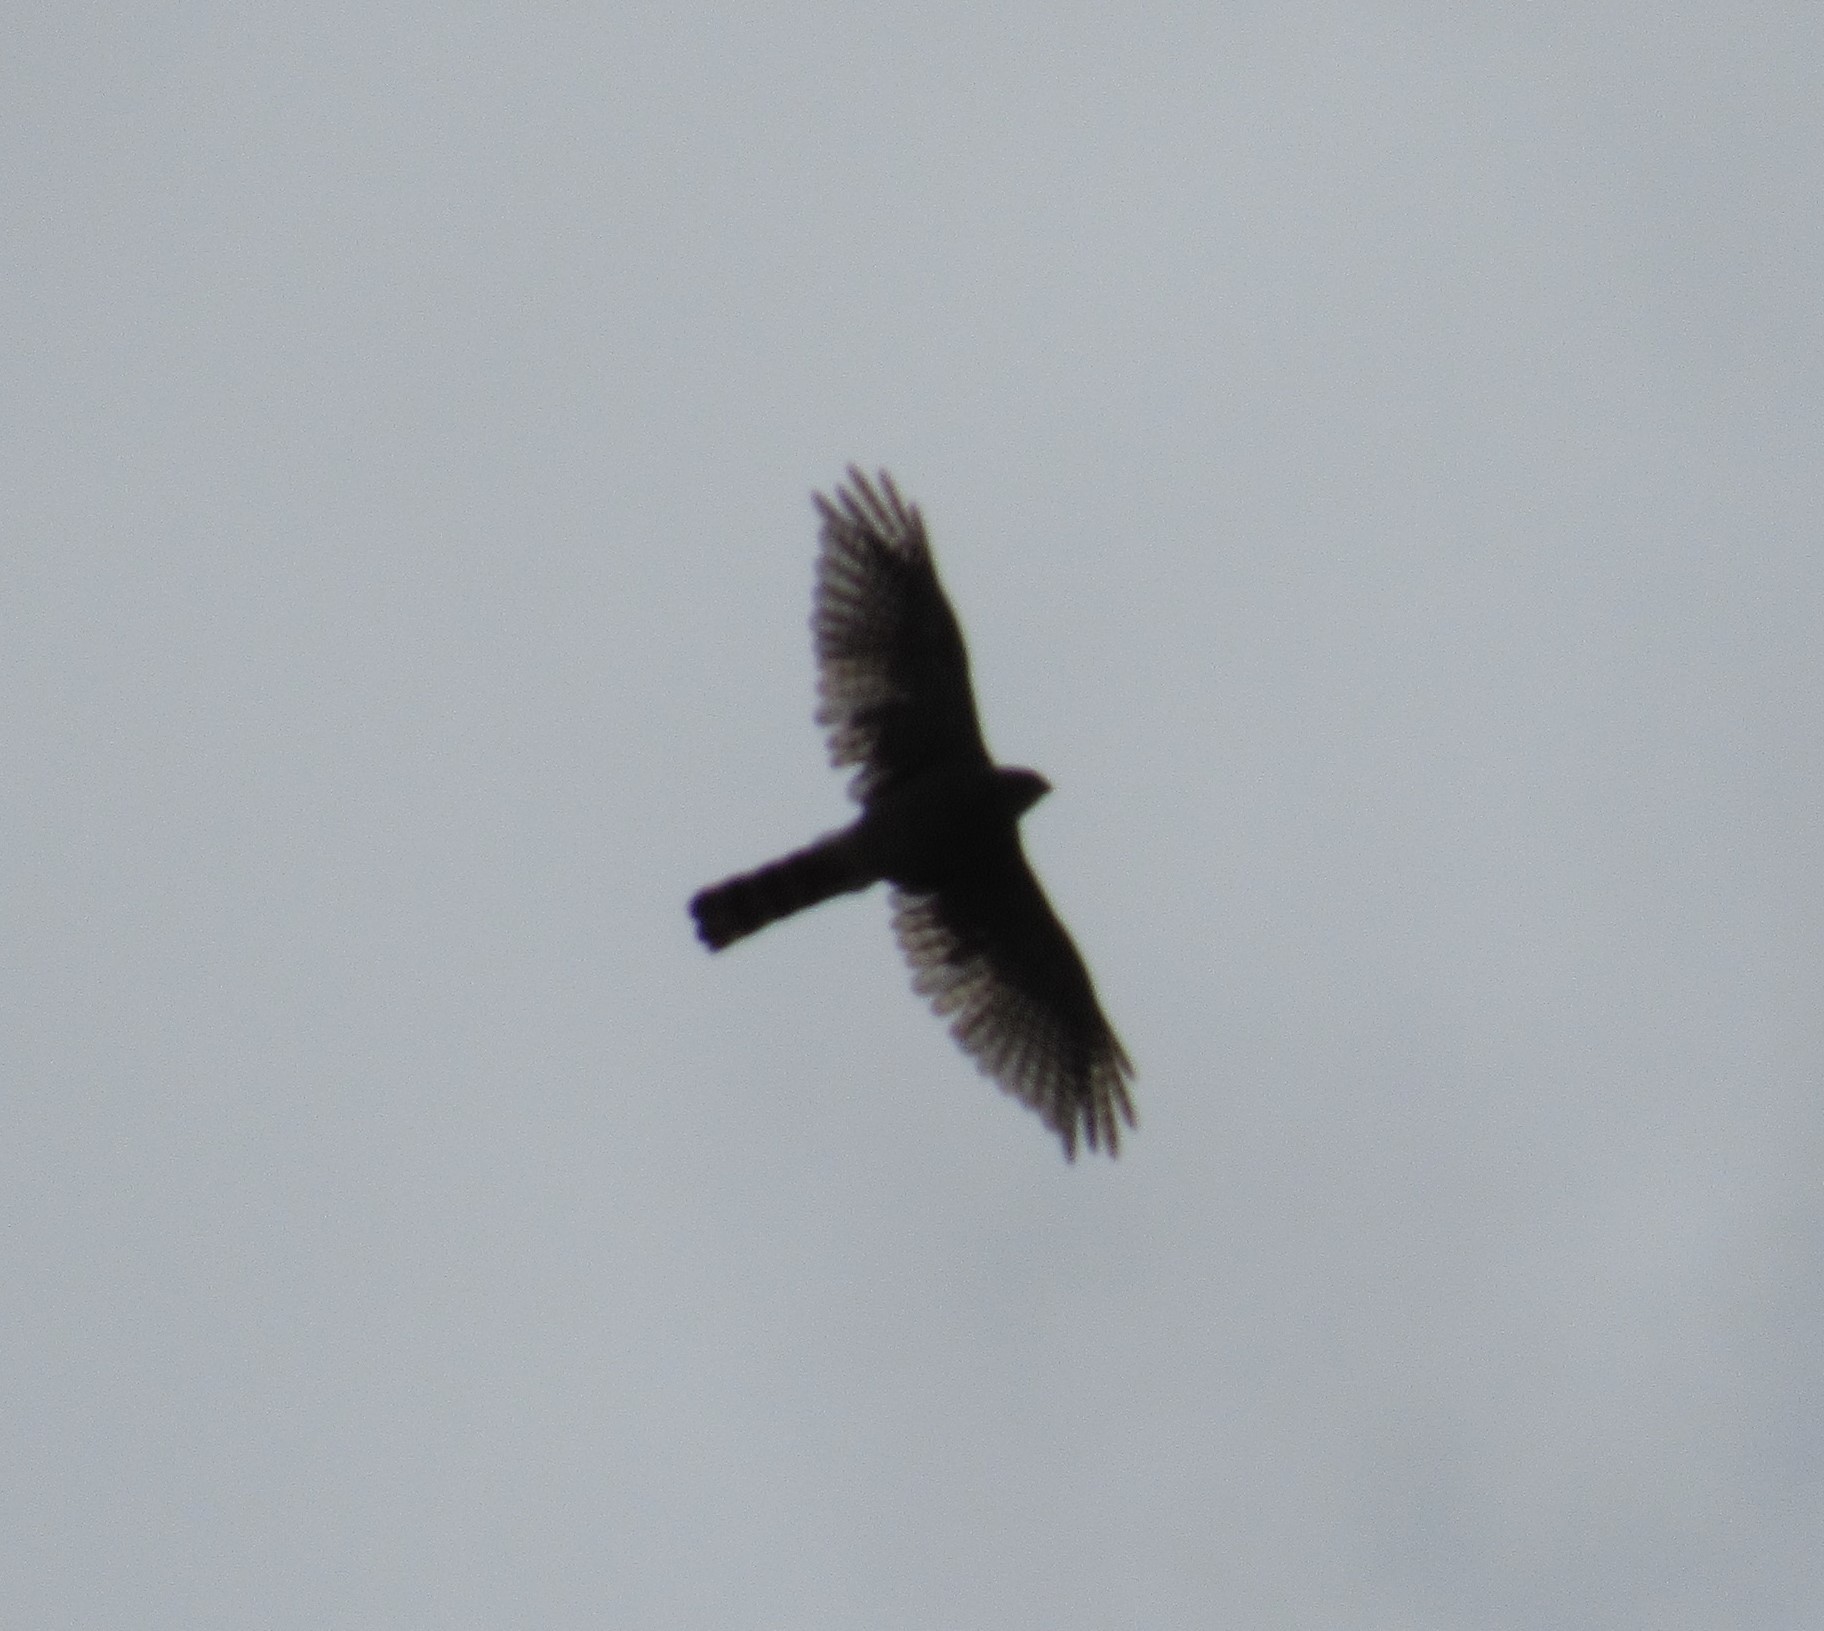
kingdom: Animalia
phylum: Chordata
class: Aves
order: Accipitriformes
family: Accipitridae
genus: Accipiter
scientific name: Accipiter striatus
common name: Sharp-shinned hawk
